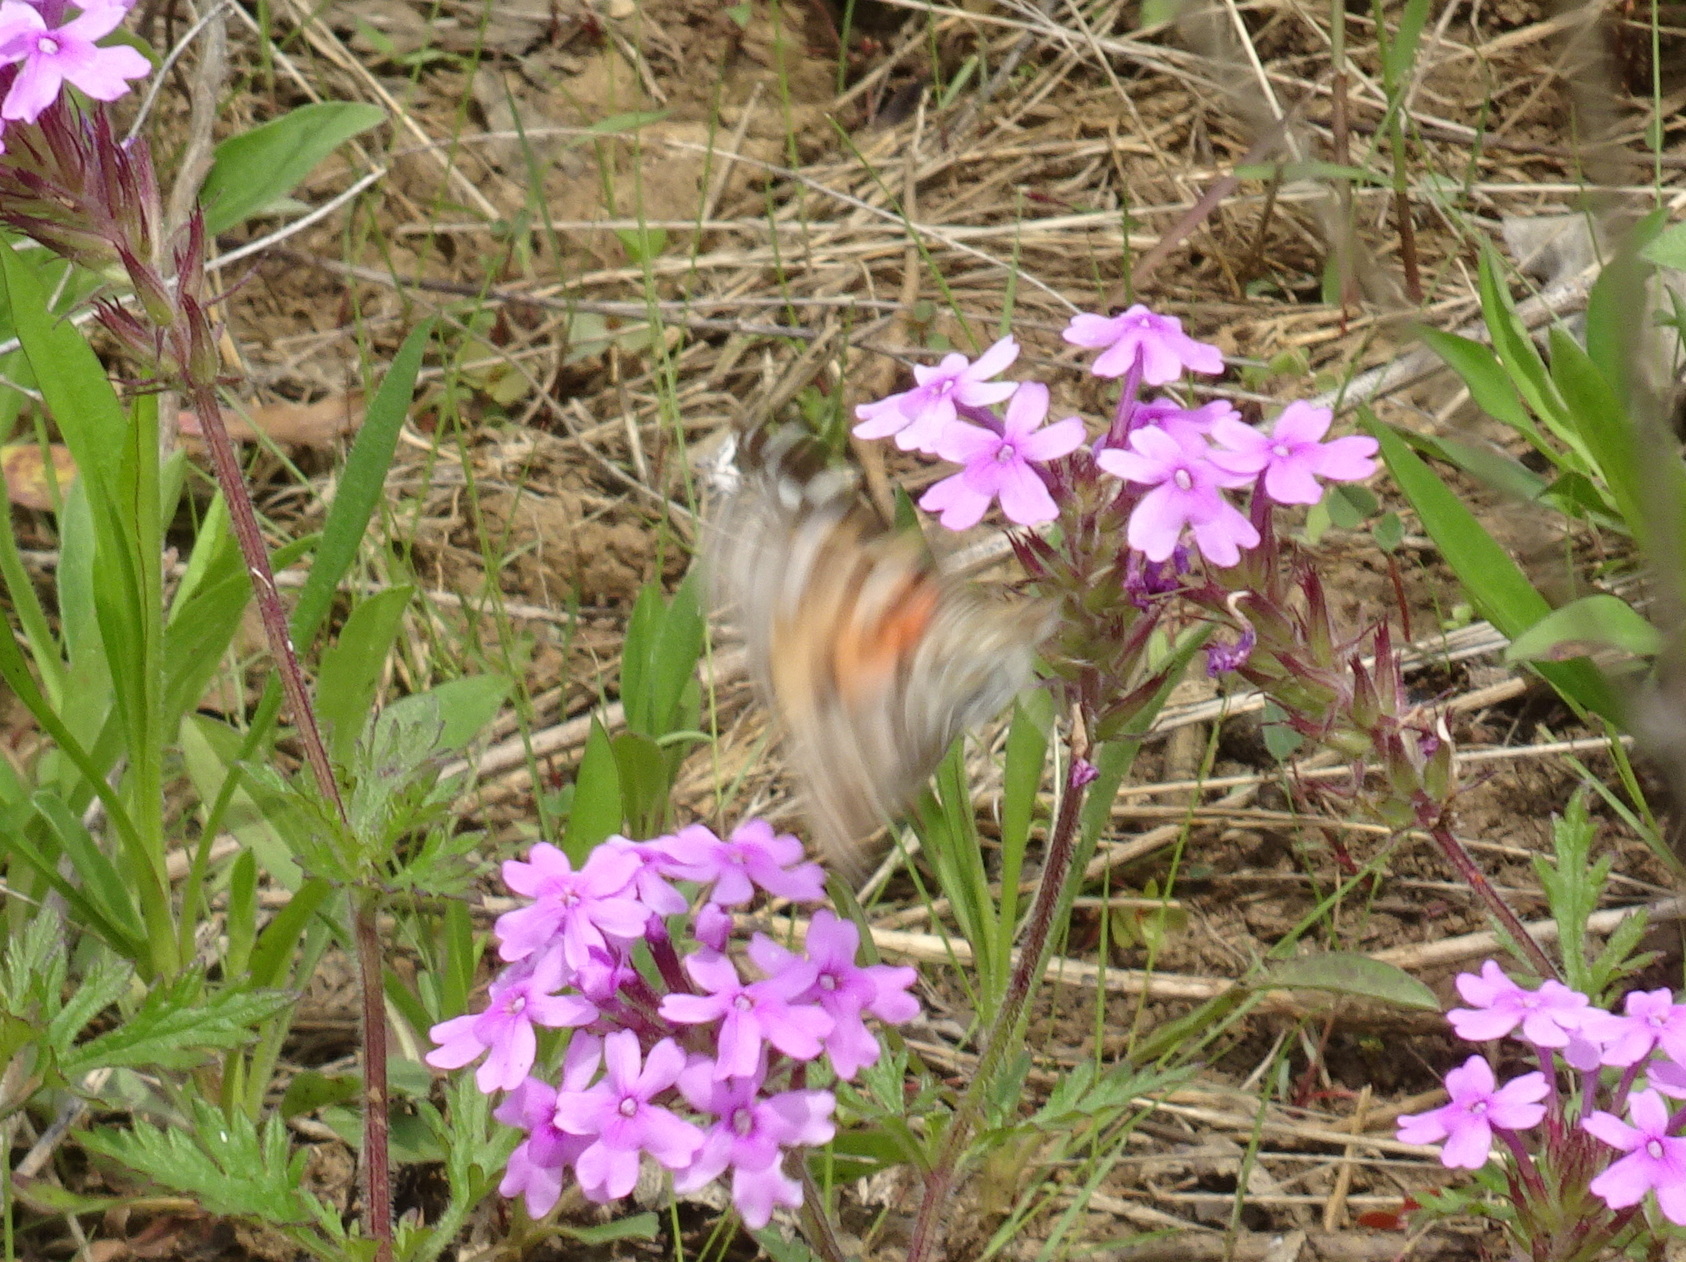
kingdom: Animalia
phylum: Arthropoda
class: Insecta
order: Lepidoptera
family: Nymphalidae
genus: Vanessa
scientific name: Vanessa
